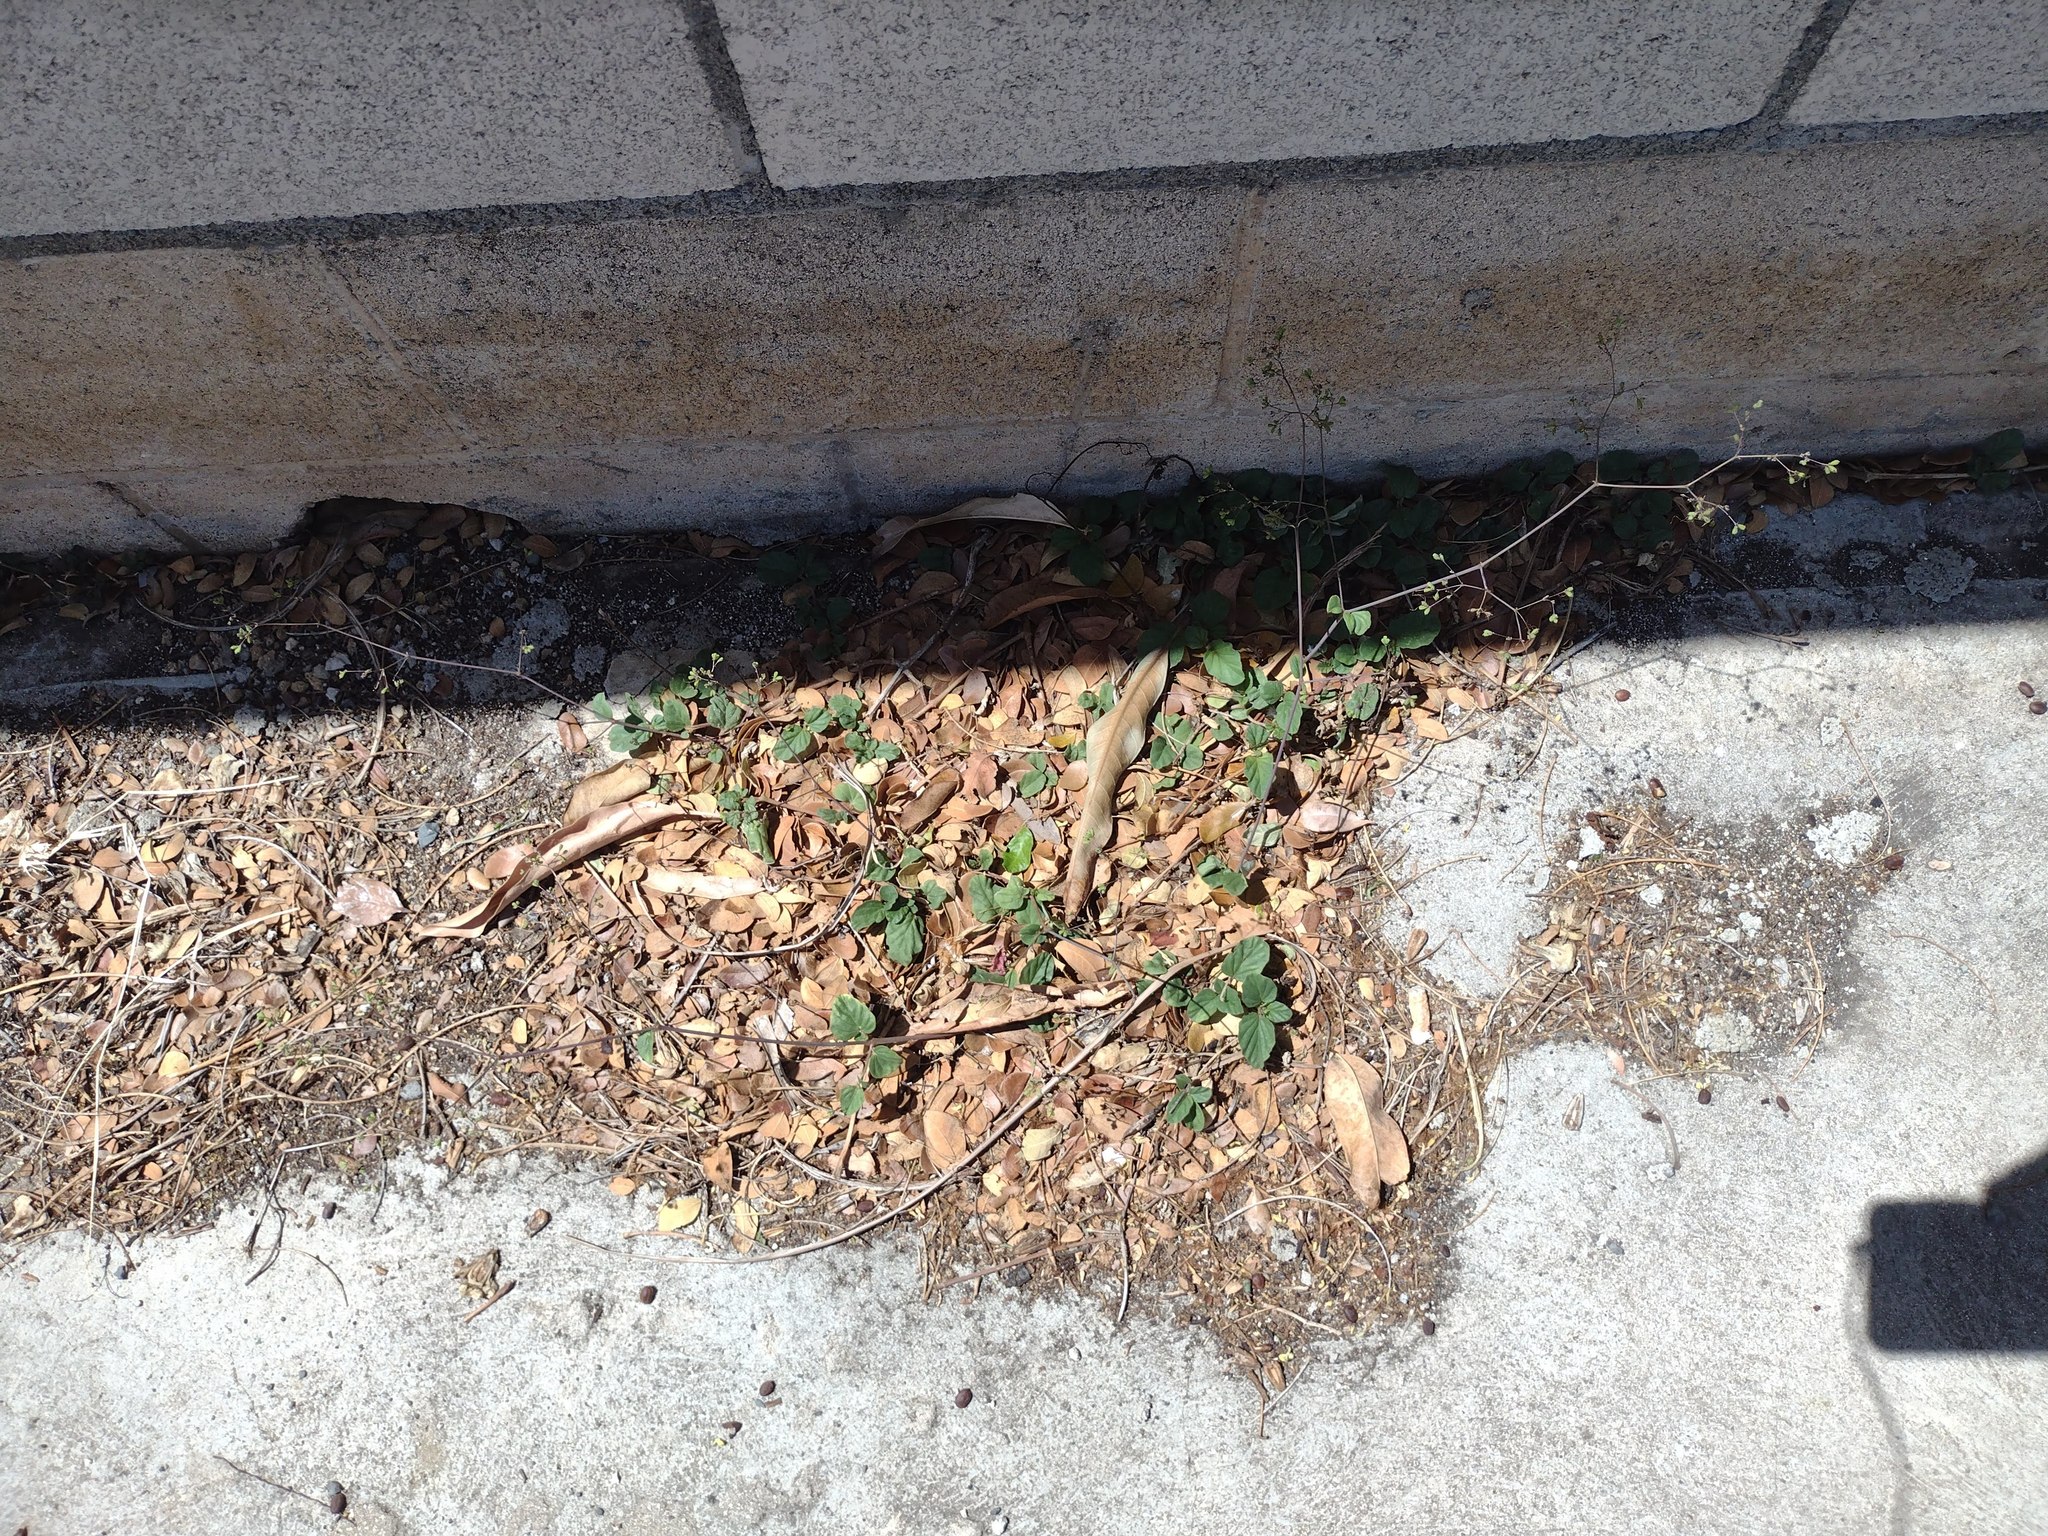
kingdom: Plantae
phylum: Tracheophyta
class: Magnoliopsida
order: Caryophyllales
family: Nyctaginaceae
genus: Boerhavia
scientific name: Boerhavia diffusa
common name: Red spiderling
